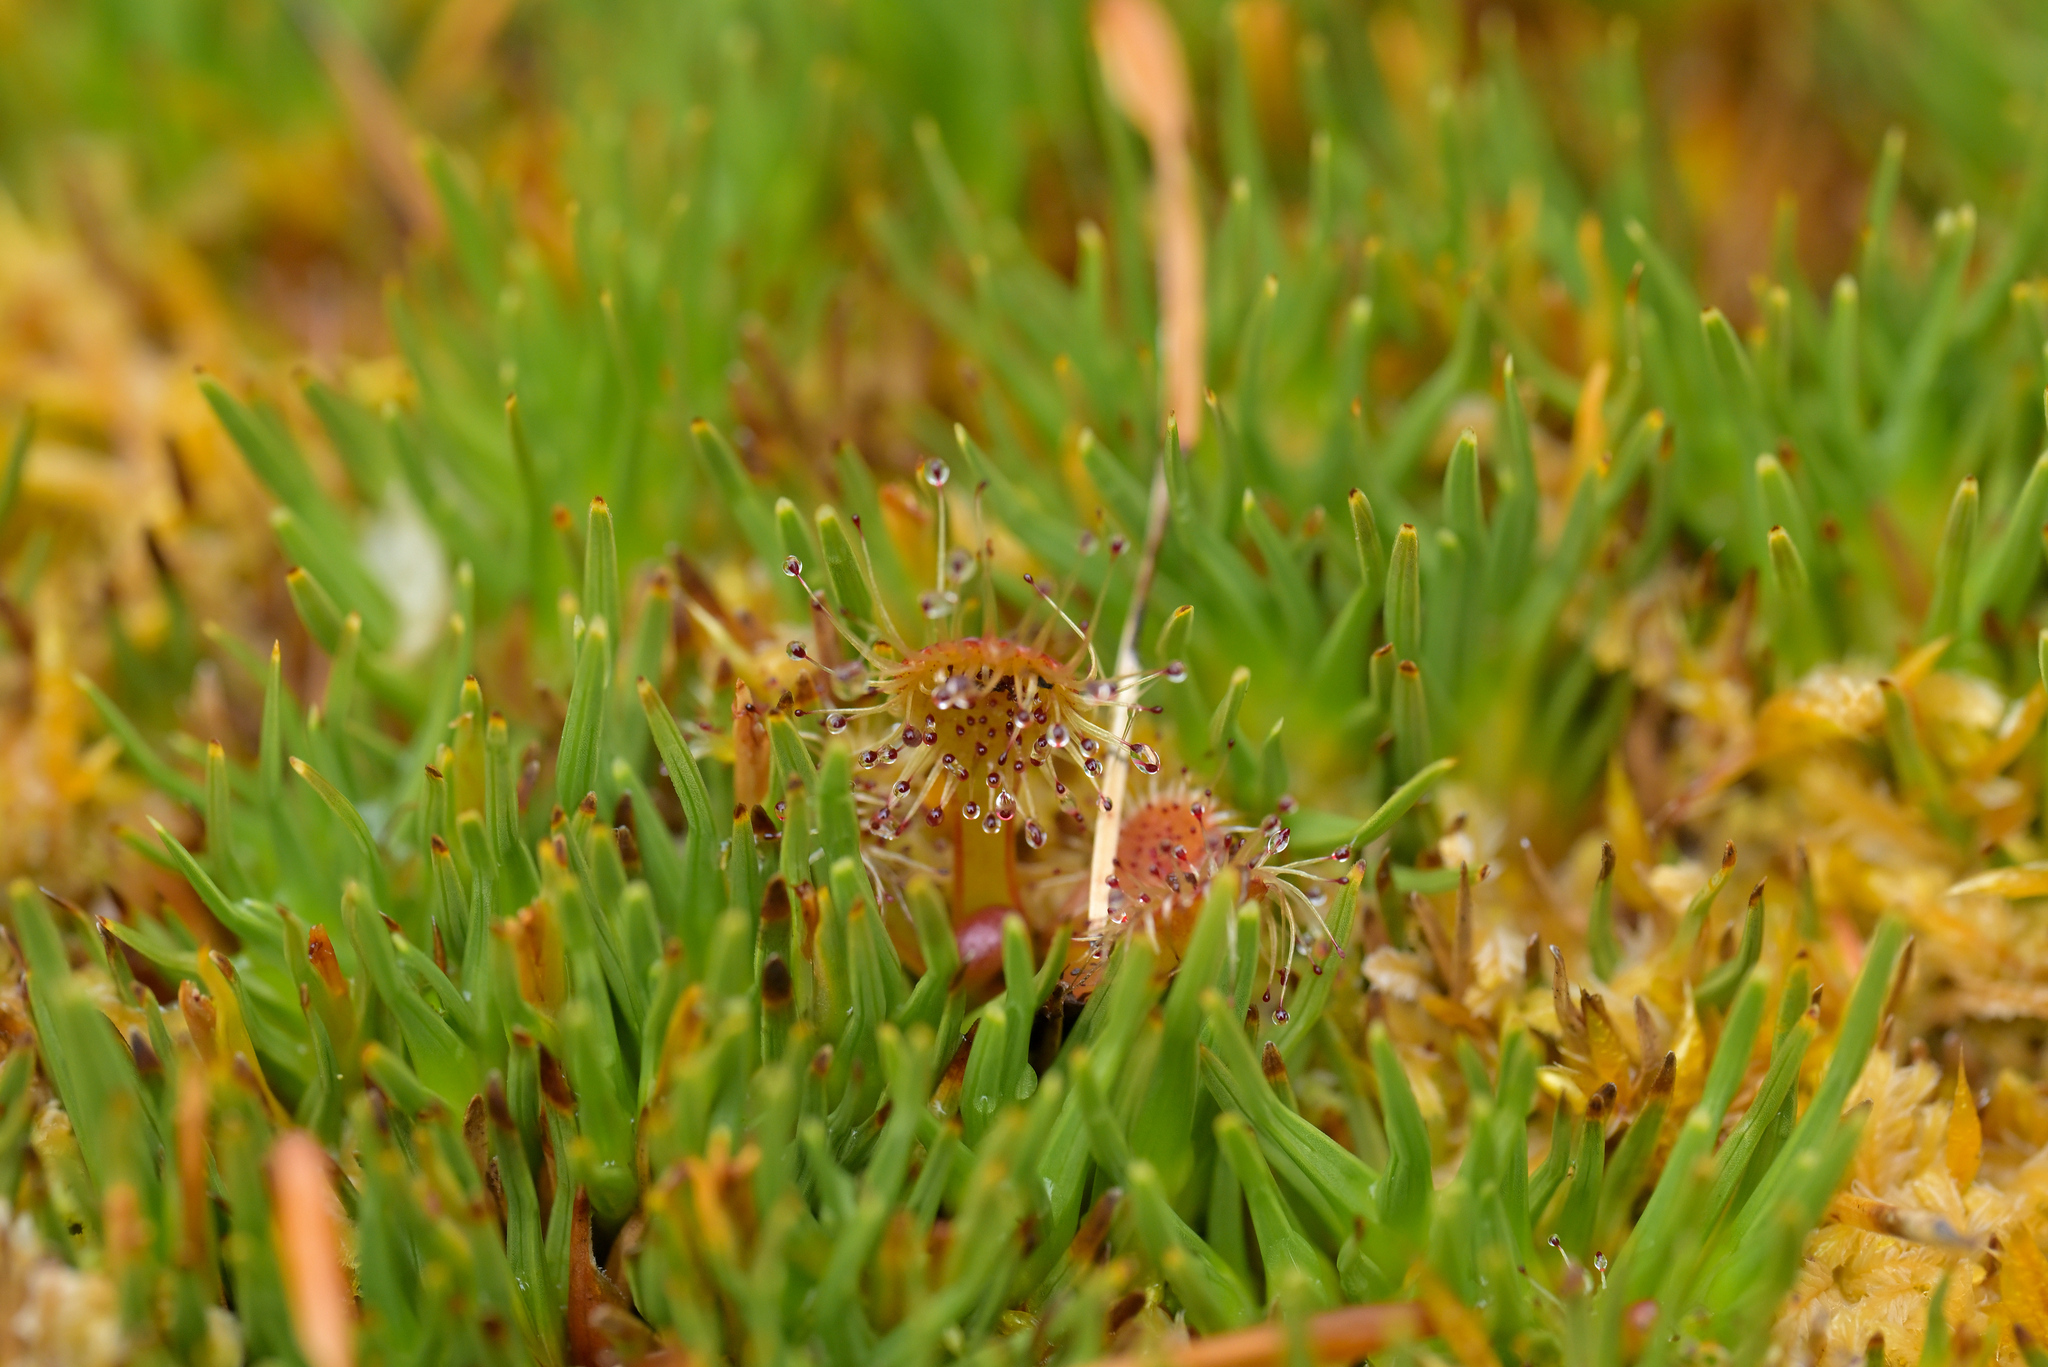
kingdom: Plantae
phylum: Tracheophyta
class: Magnoliopsida
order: Caryophyllales
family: Droseraceae
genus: Drosera
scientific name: Drosera stenopetala
